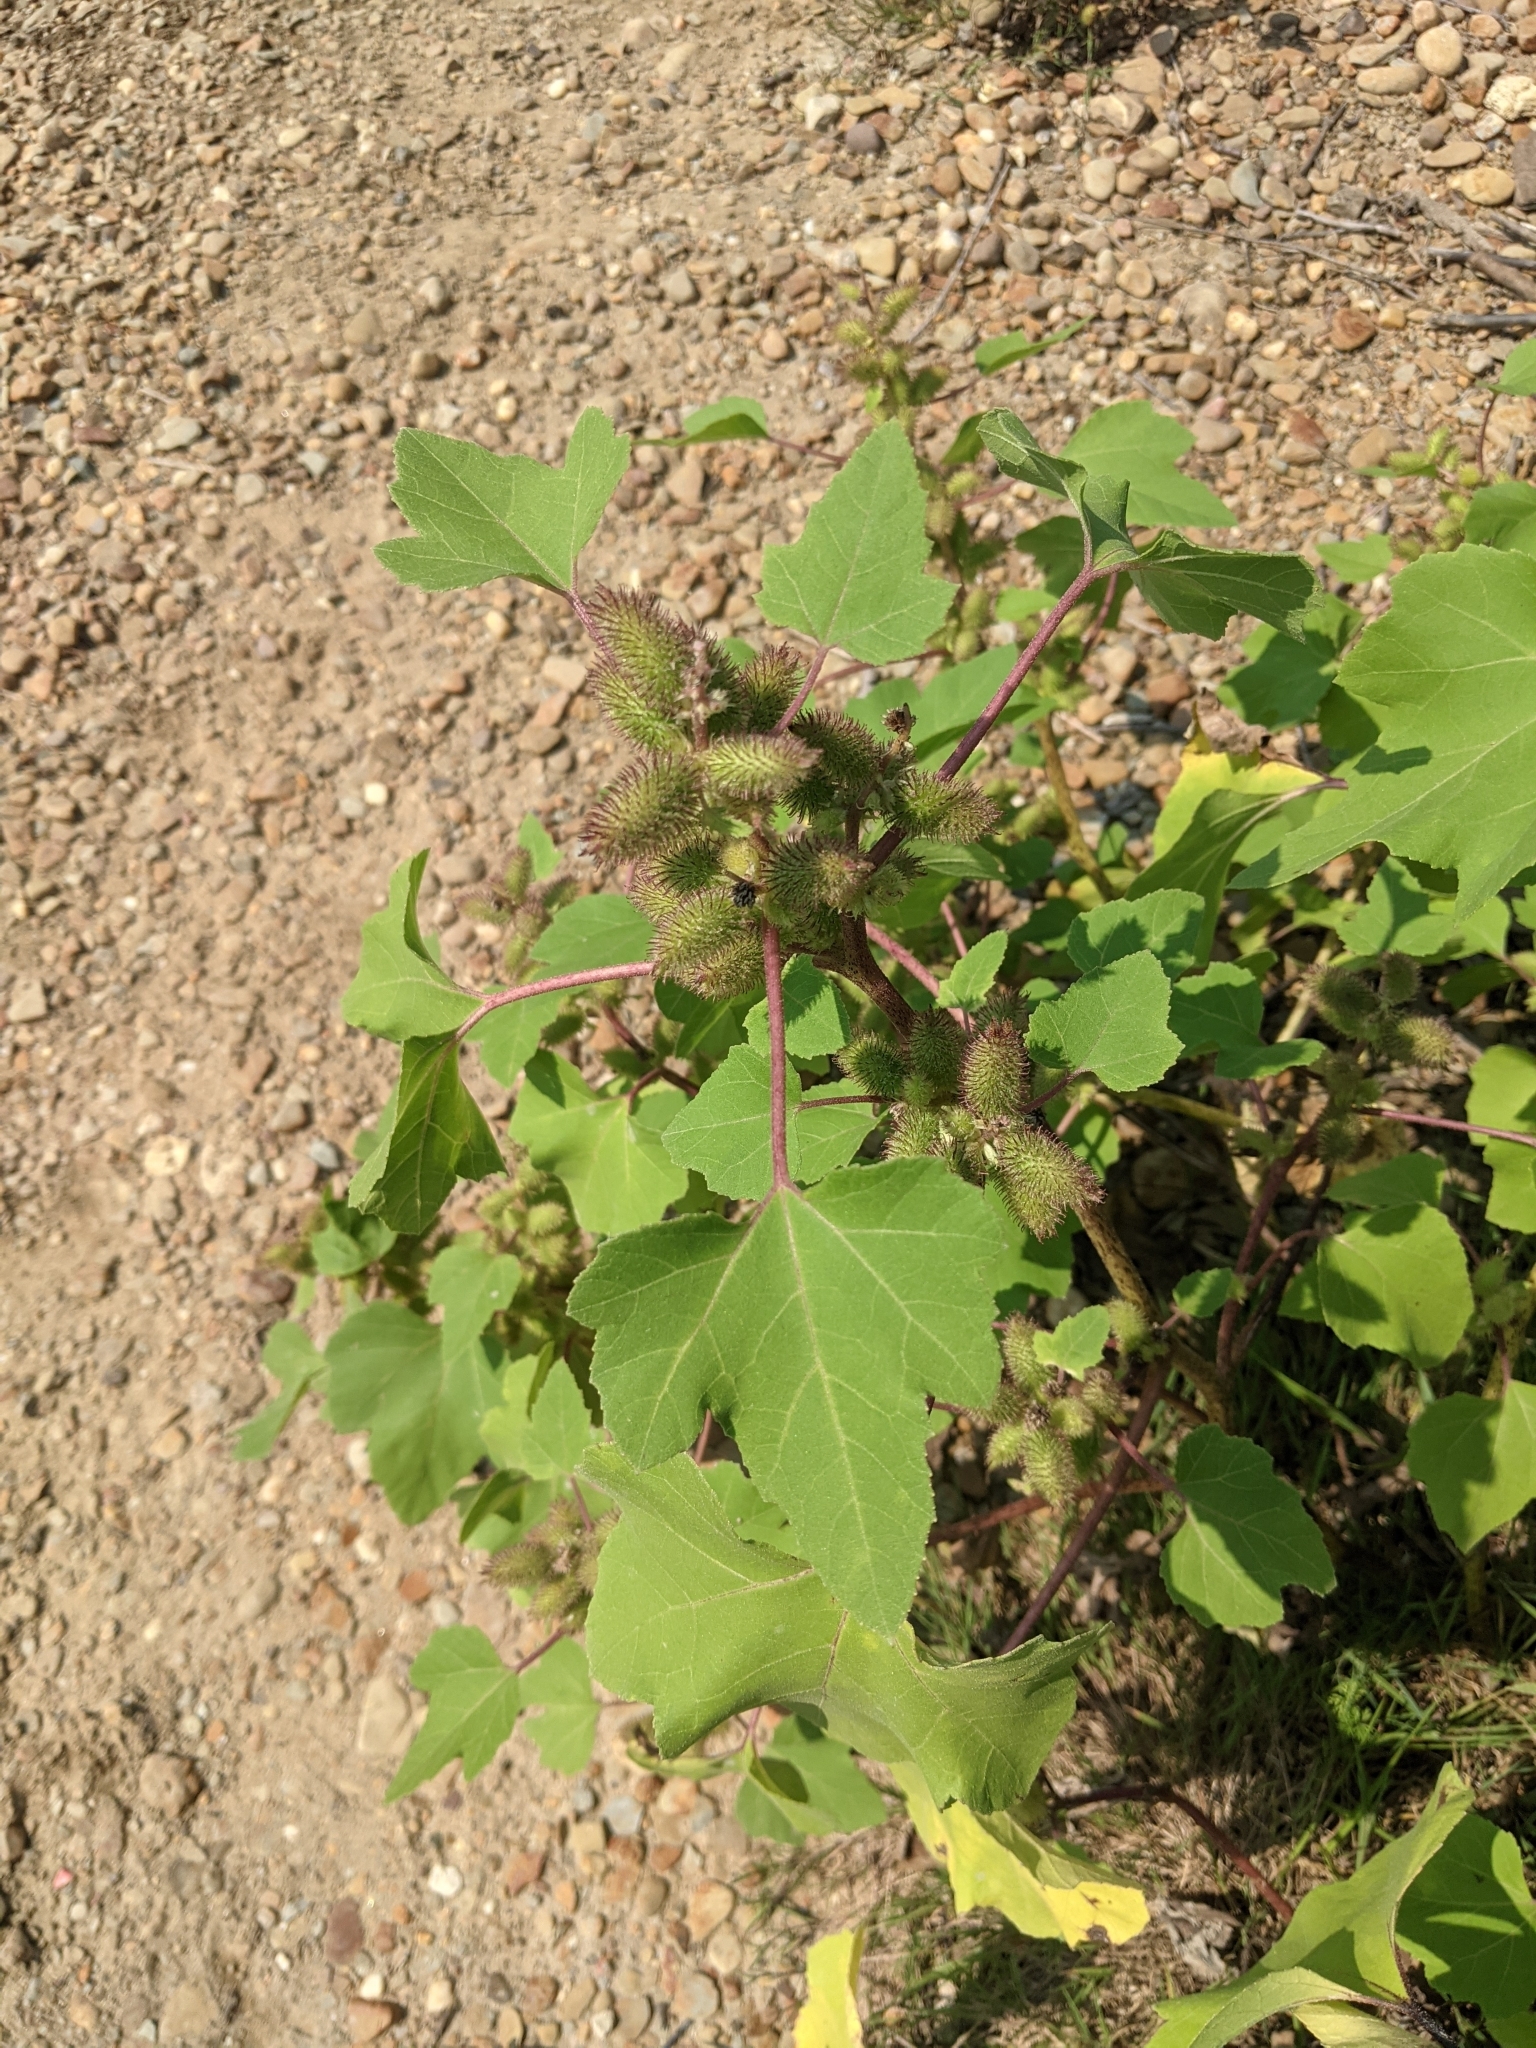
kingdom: Plantae
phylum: Tracheophyta
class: Magnoliopsida
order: Asterales
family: Asteraceae
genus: Xanthium
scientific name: Xanthium strumarium
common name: Rough cocklebur
